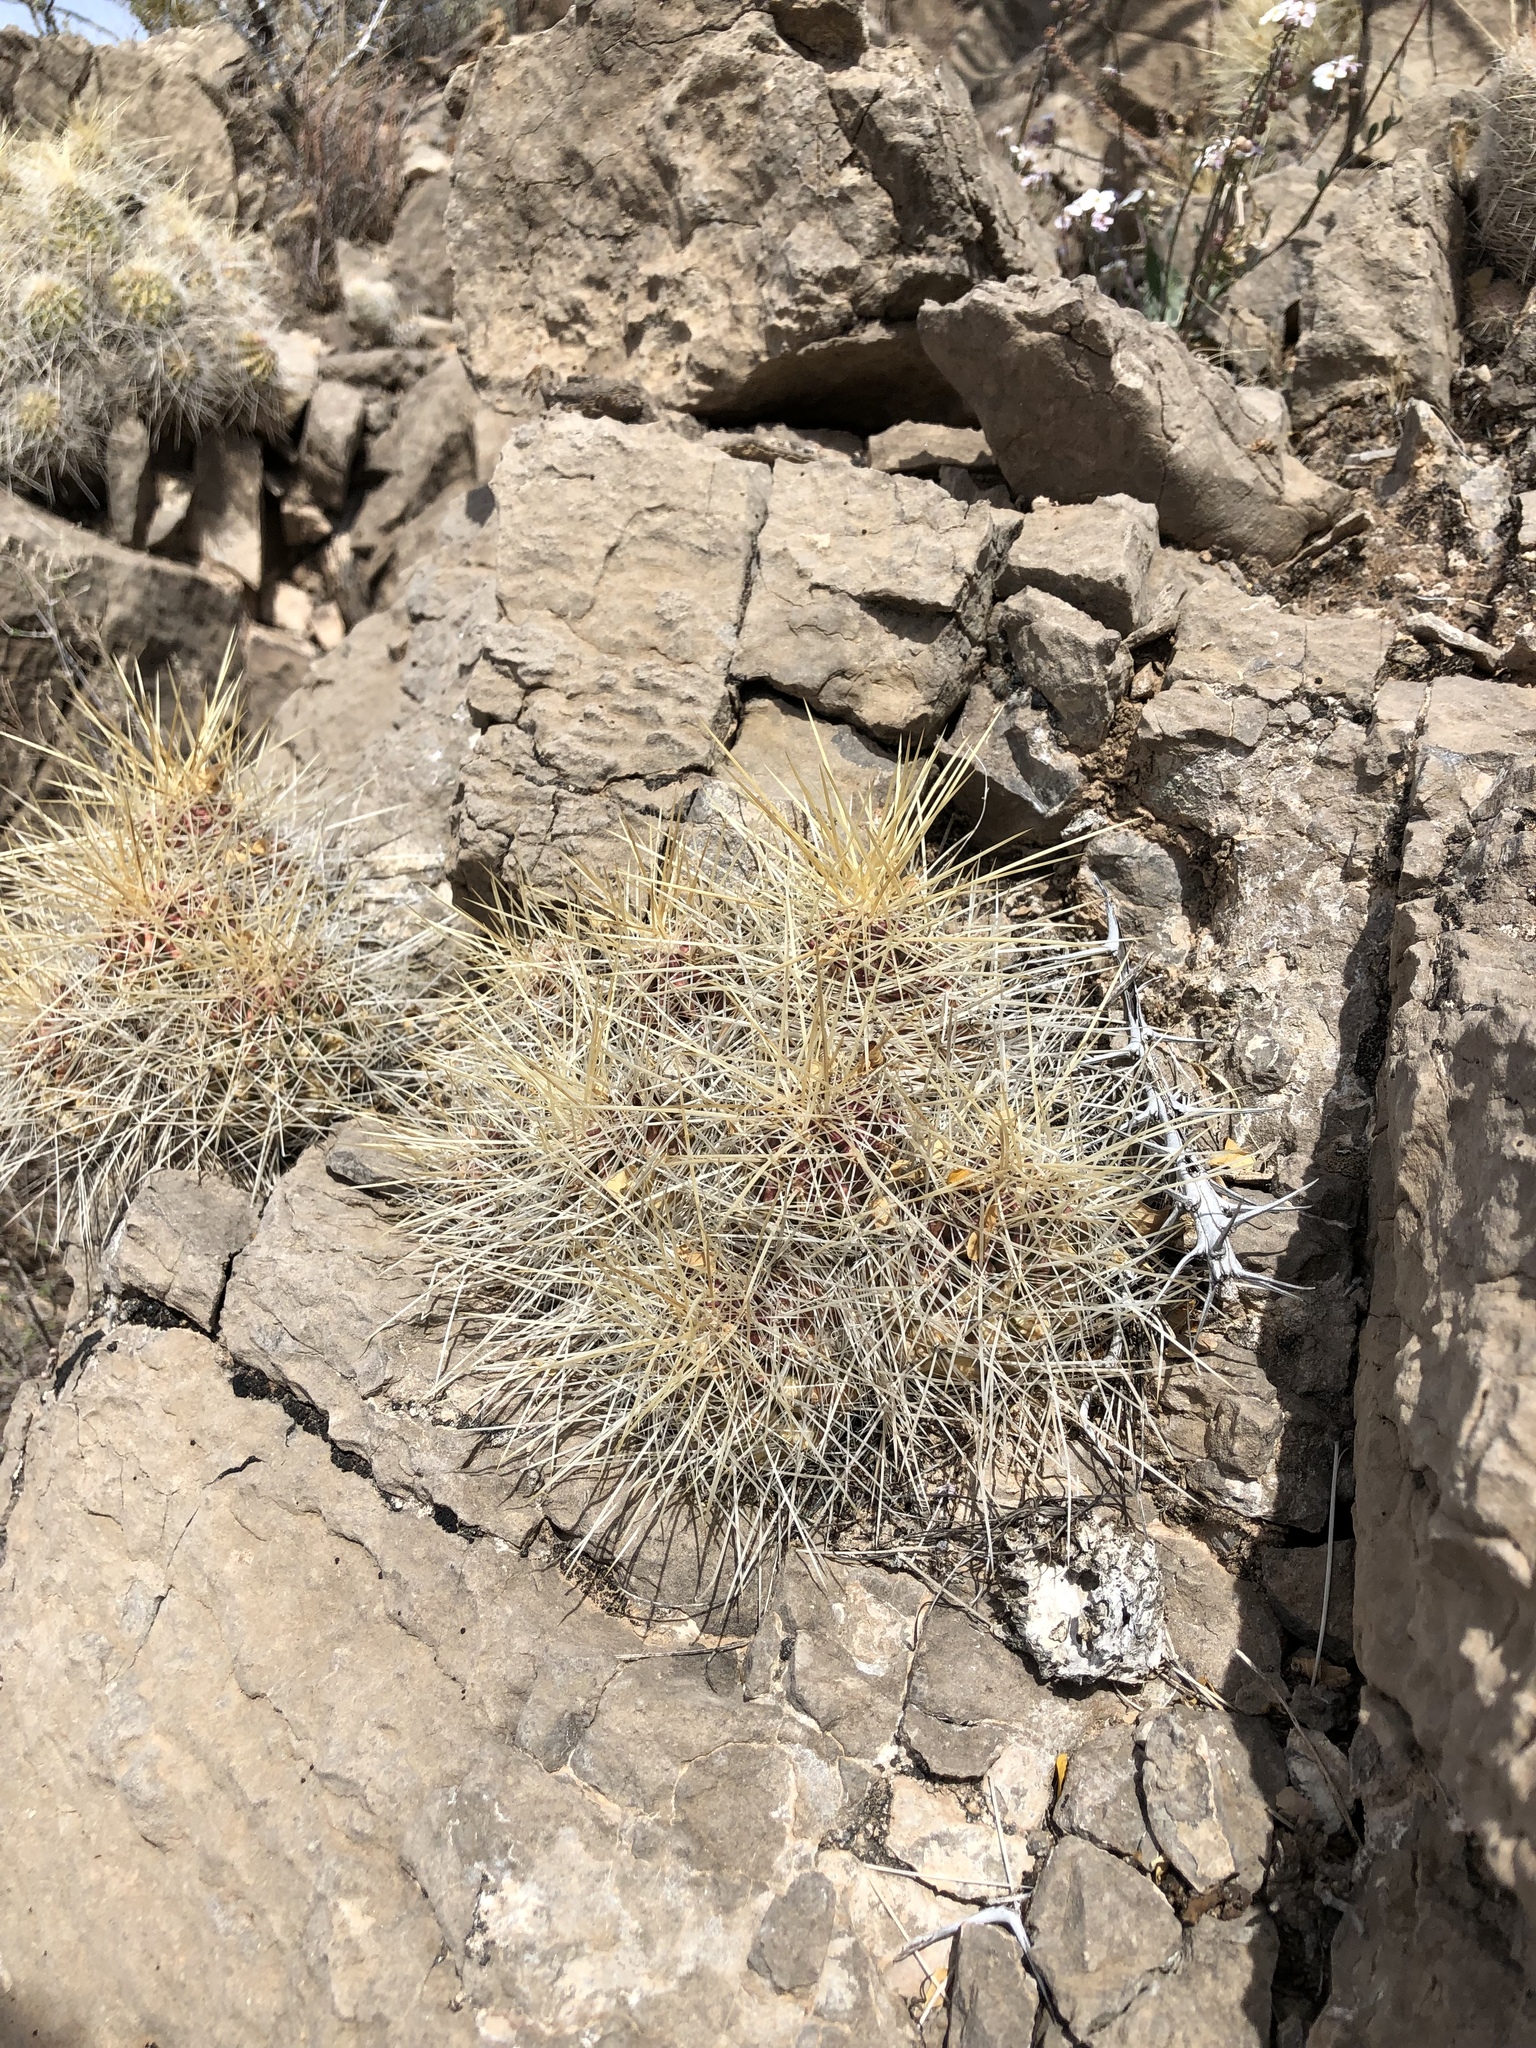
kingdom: Plantae
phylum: Tracheophyta
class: Magnoliopsida
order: Caryophyllales
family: Cactaceae
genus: Echinocereus
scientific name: Echinocereus stramineus
